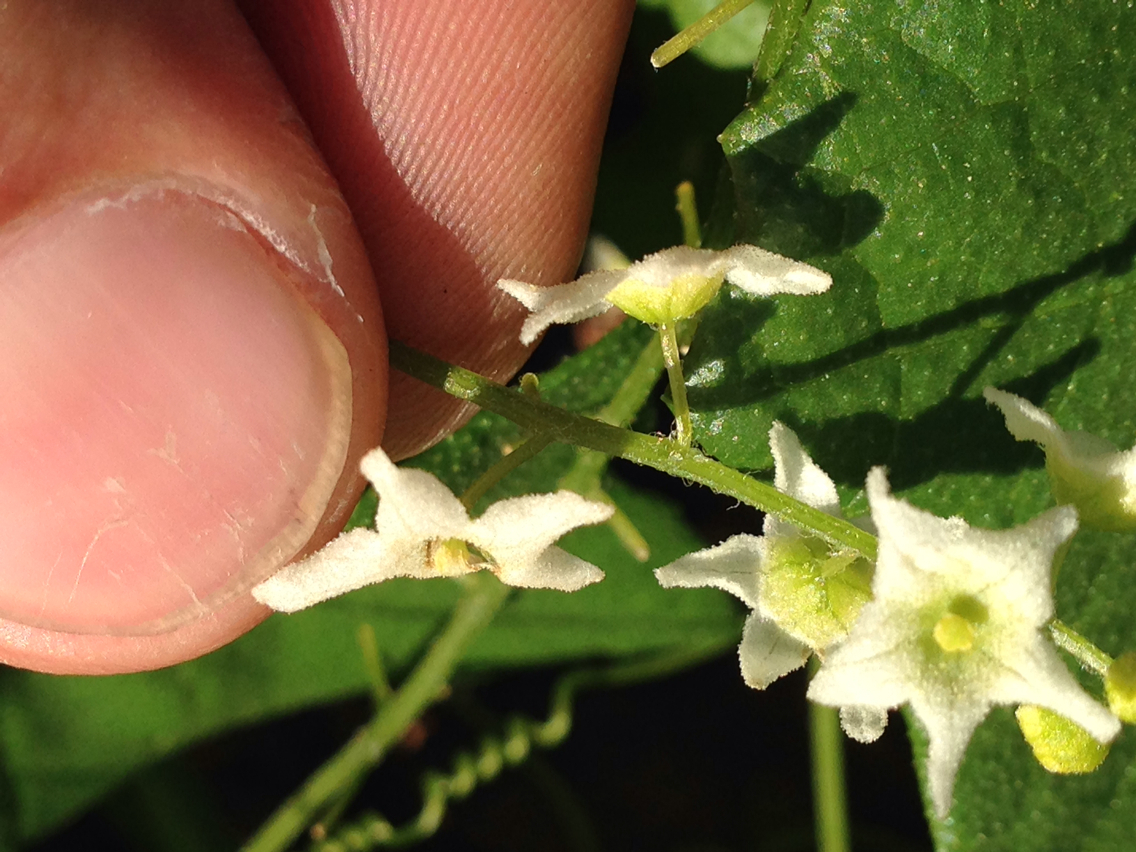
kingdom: Plantae
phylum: Tracheophyta
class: Magnoliopsida
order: Cucurbitales
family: Cucurbitaceae
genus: Marah
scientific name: Marah fabacea
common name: California manroot
